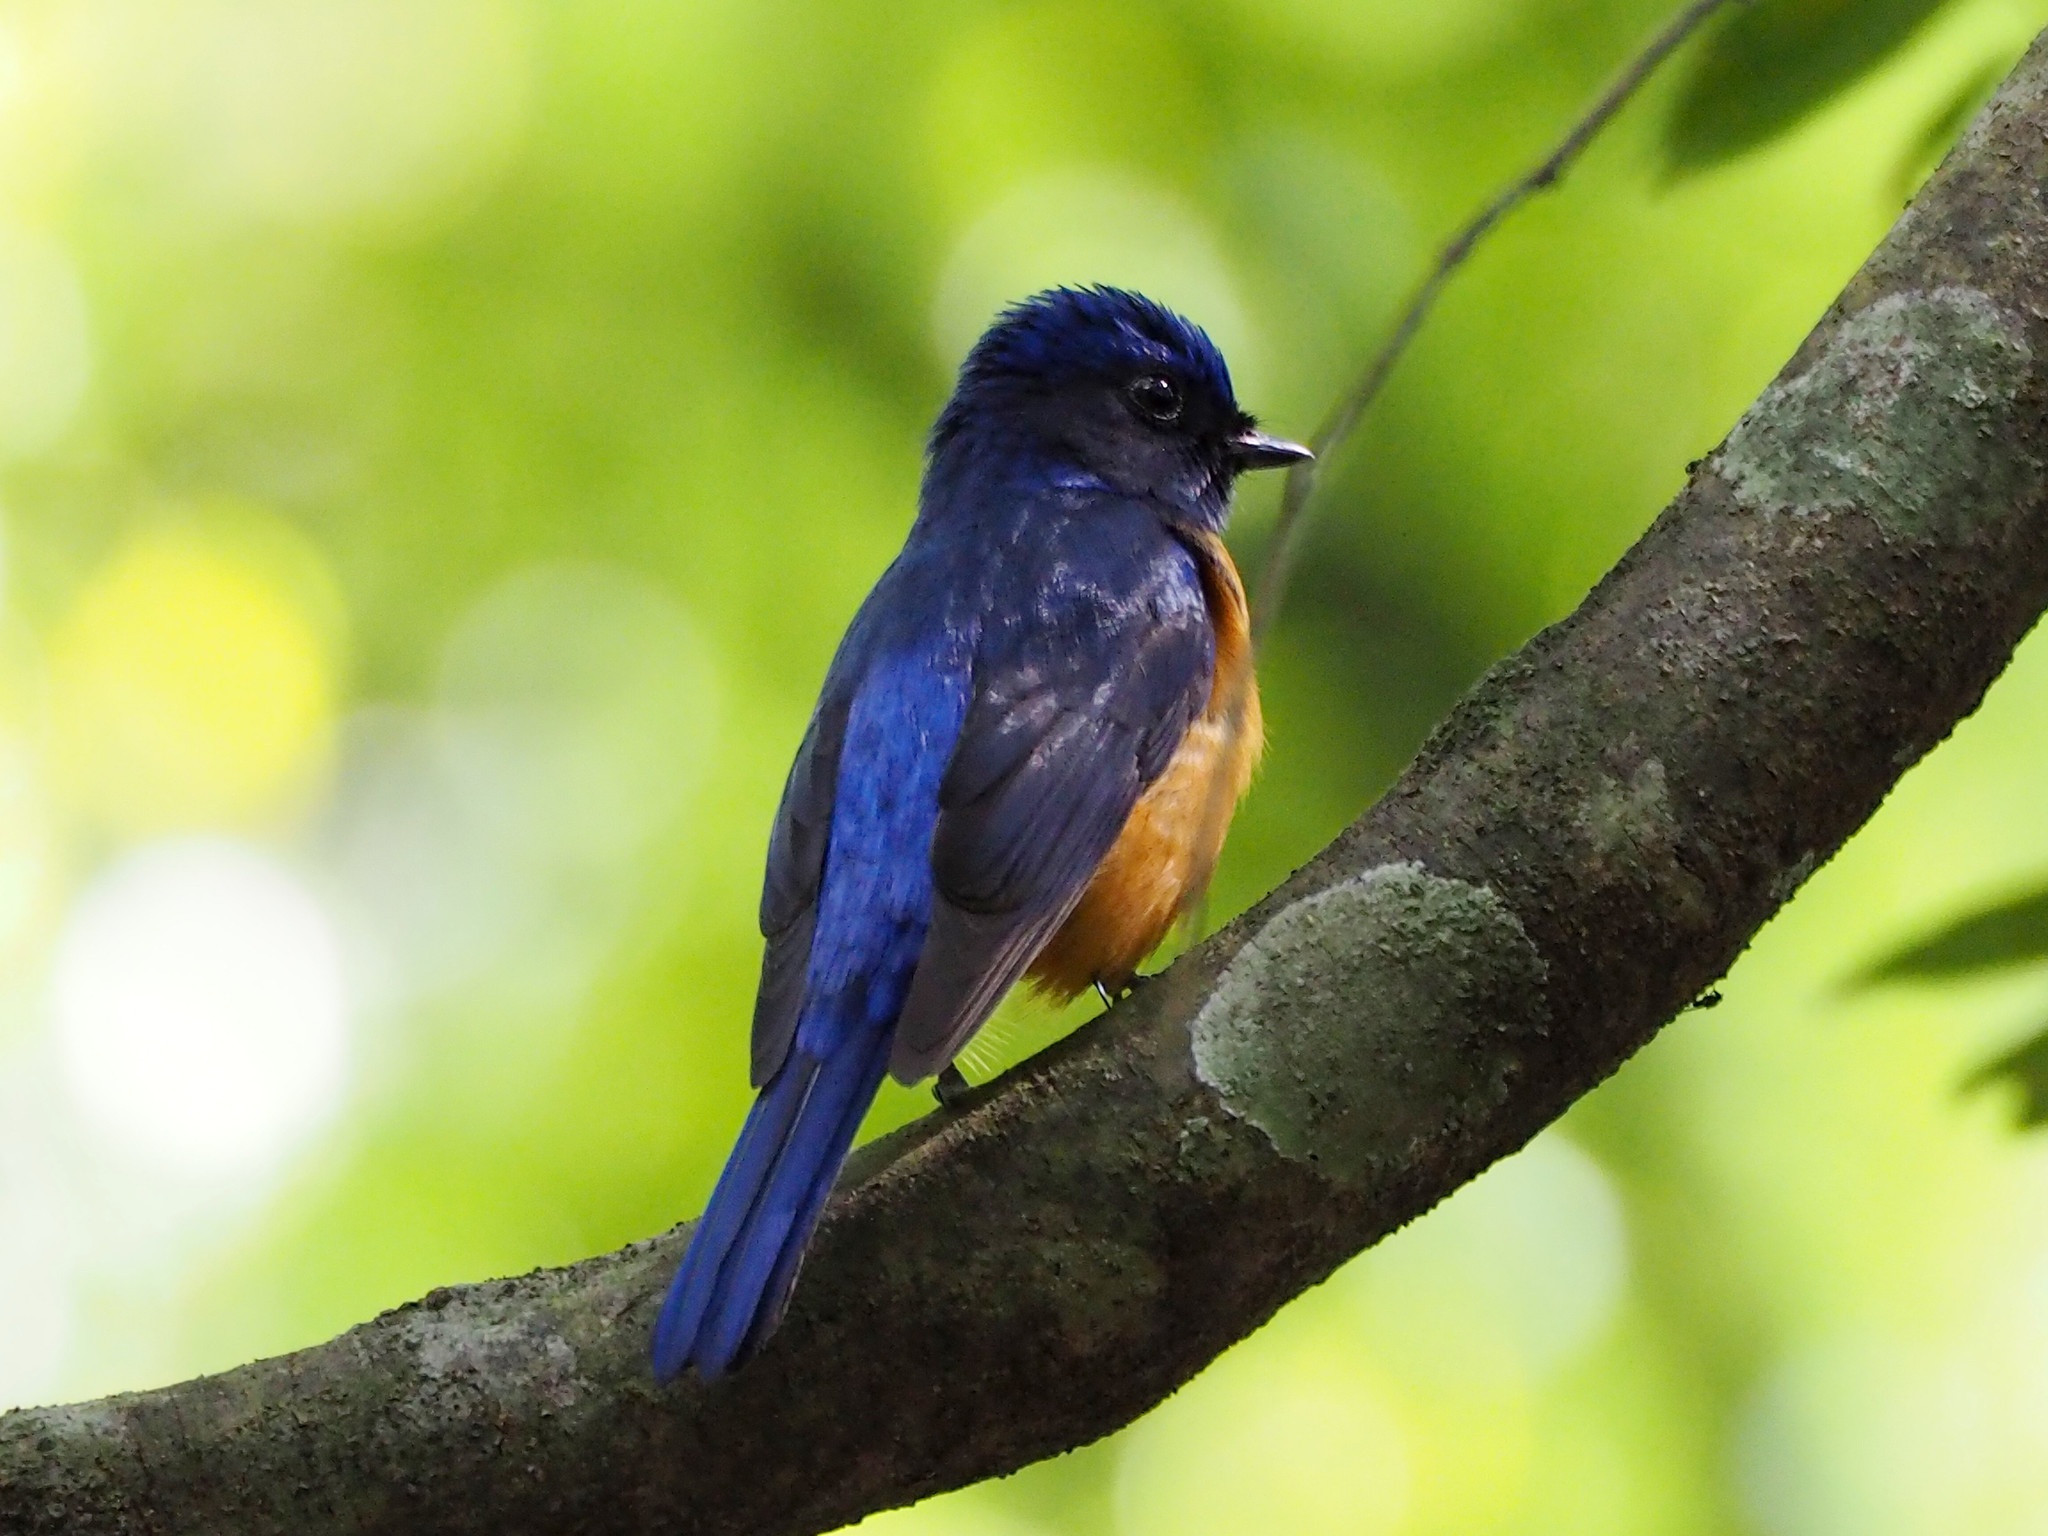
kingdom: Animalia
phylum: Chordata
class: Aves
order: Passeriformes
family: Muscicapidae
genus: Niltava
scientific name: Niltava vivida
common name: Vivid niltava
